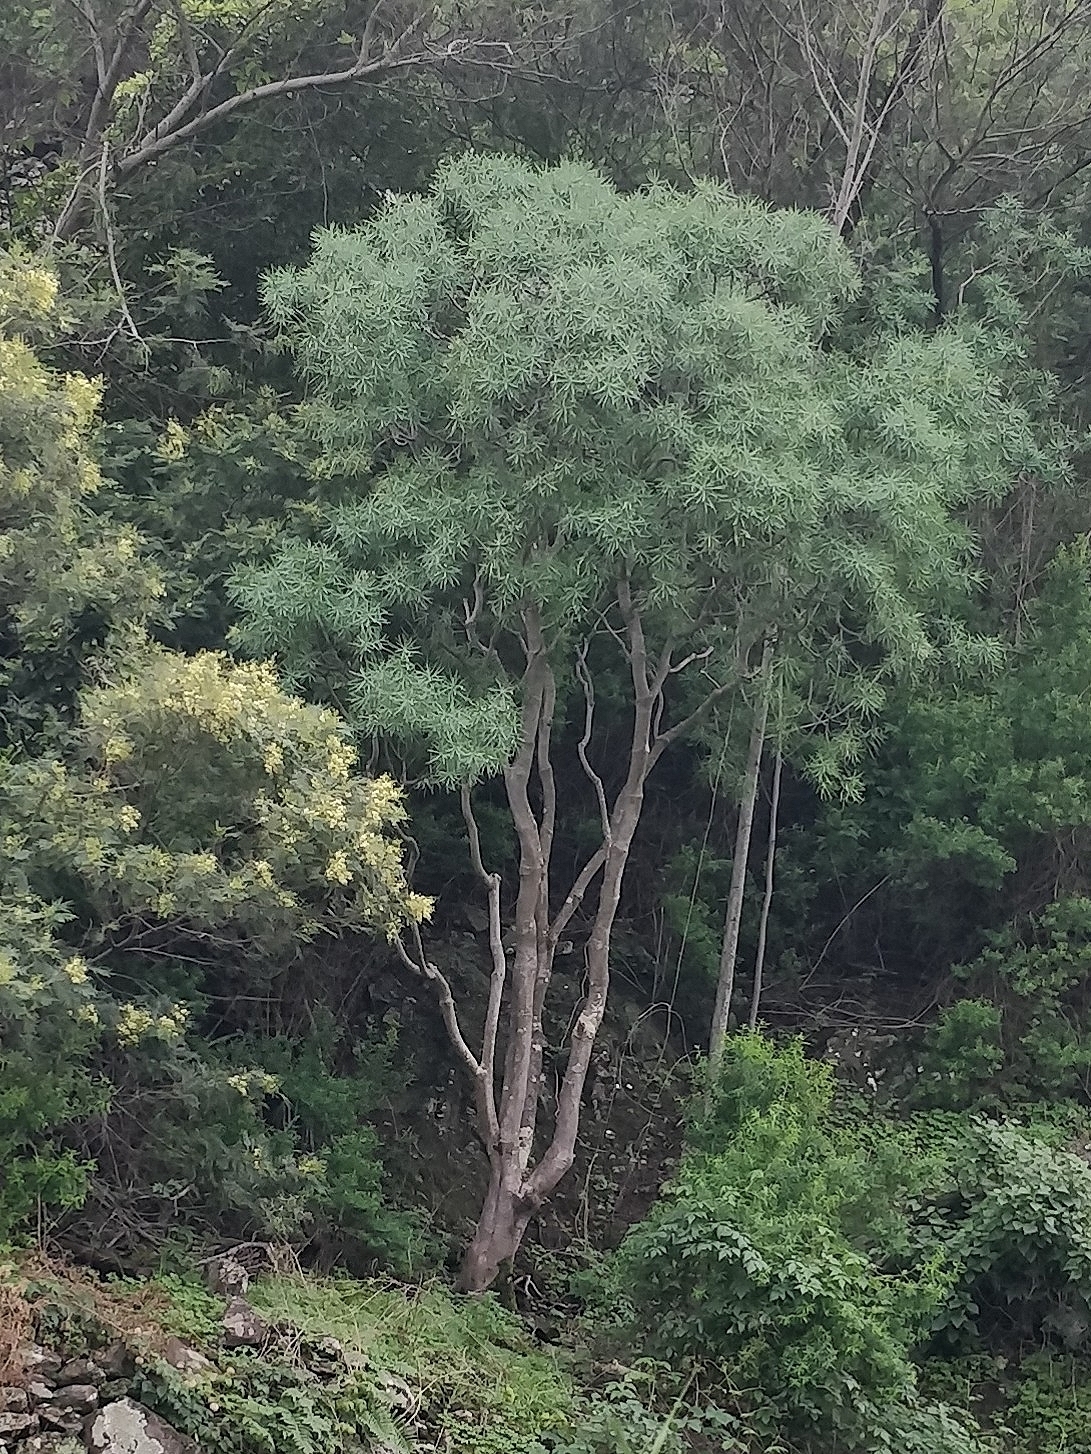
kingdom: Plantae
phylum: Tracheophyta
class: Magnoliopsida
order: Malpighiales
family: Euphorbiaceae
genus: Euphorbia
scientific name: Euphorbia piscatoria
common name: Fish-stunning spurge
